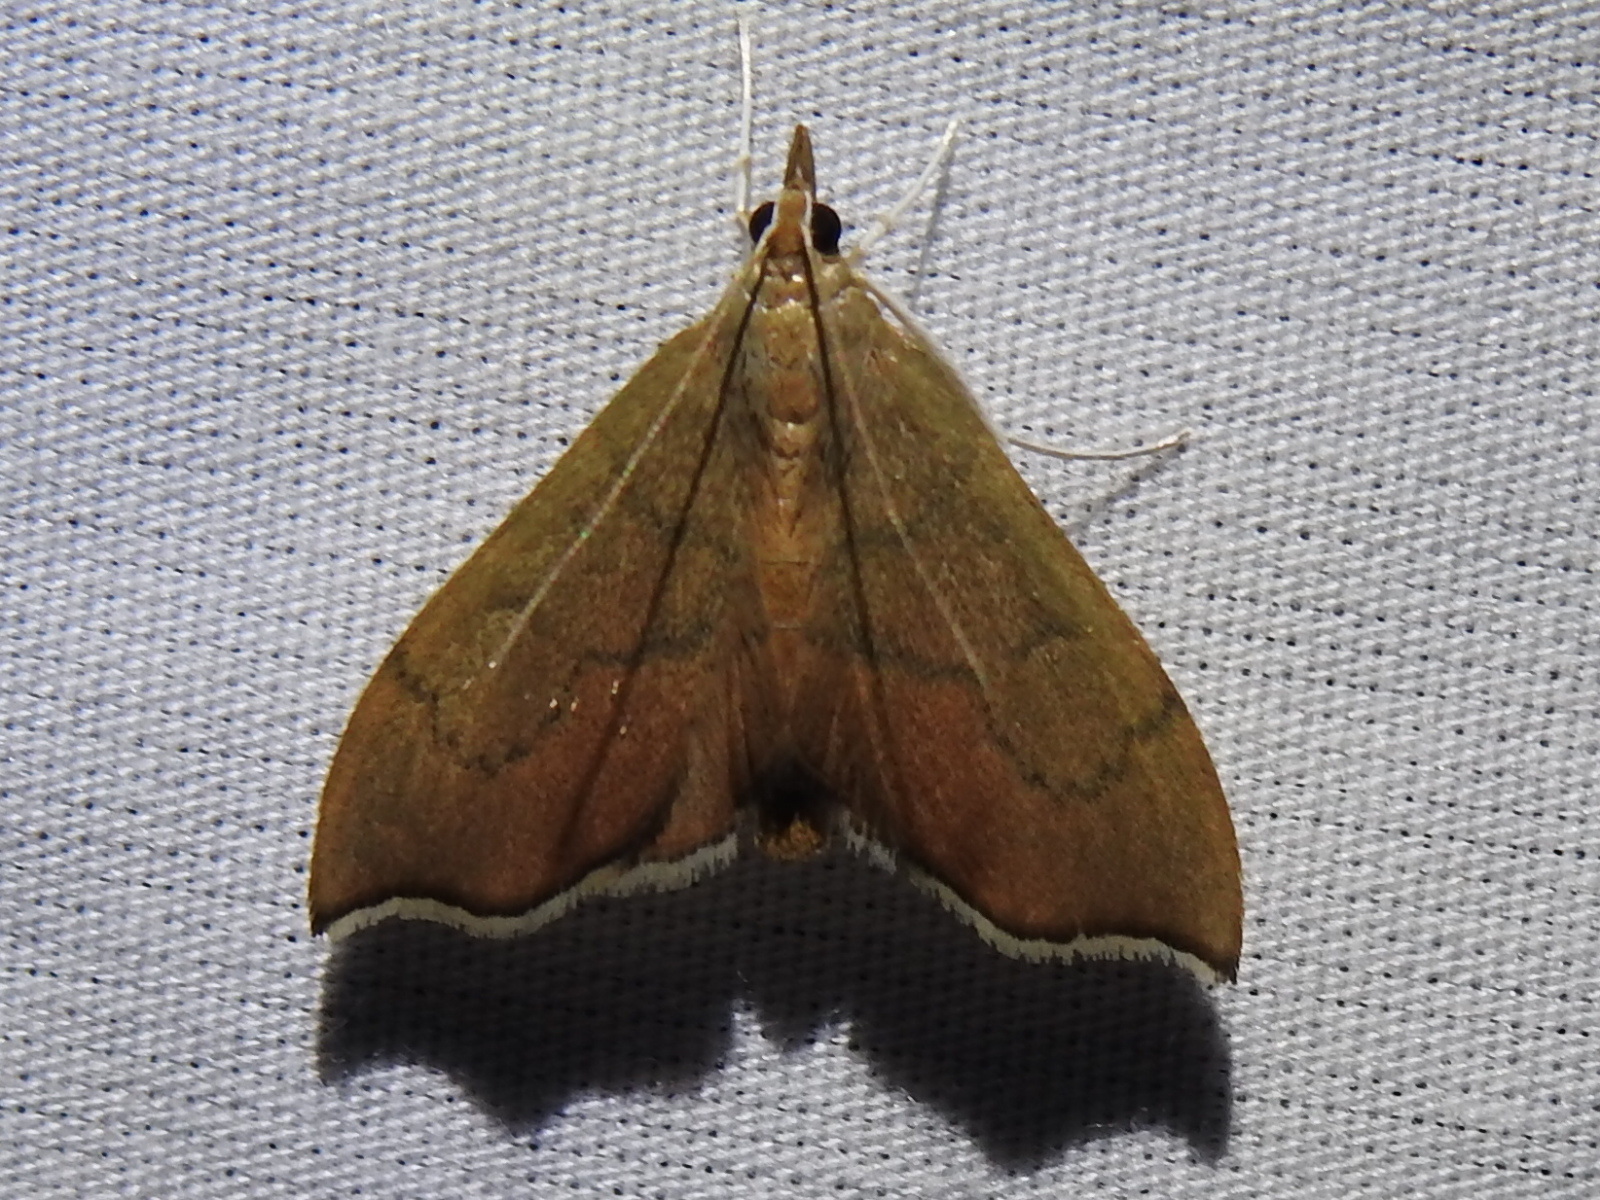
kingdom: Animalia
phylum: Arthropoda
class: Insecta
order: Lepidoptera
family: Crambidae
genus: Sericoplaga
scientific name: Sericoplaga externalis
